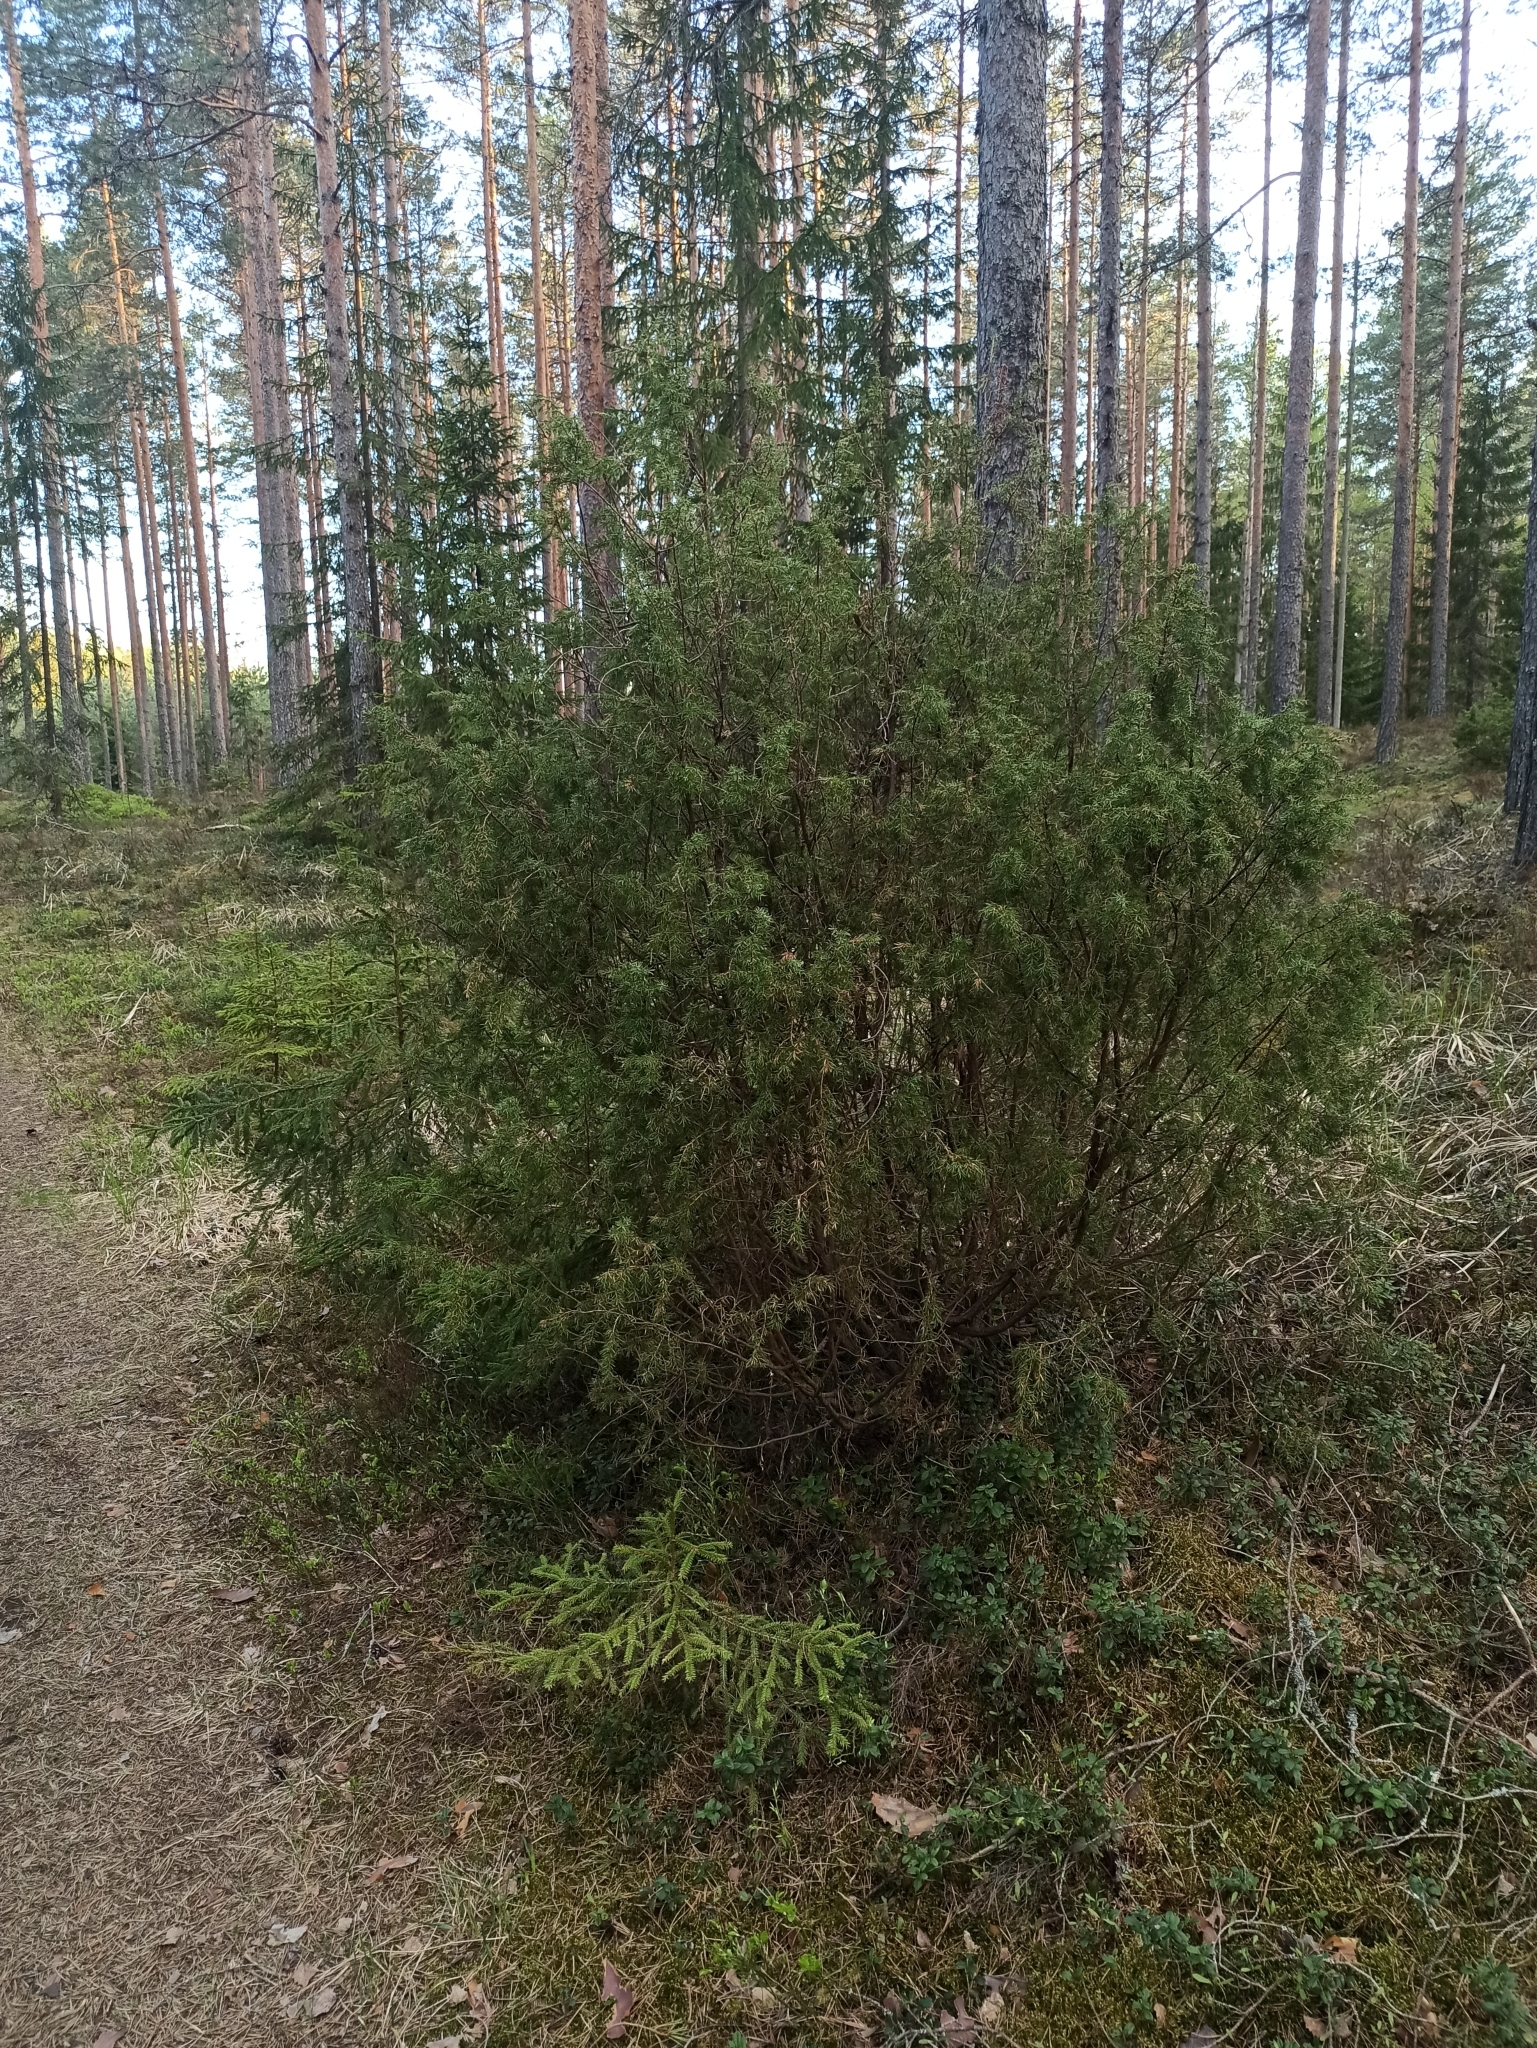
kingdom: Plantae
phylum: Tracheophyta
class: Pinopsida
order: Pinales
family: Cupressaceae
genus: Juniperus
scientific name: Juniperus communis
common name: Common juniper
